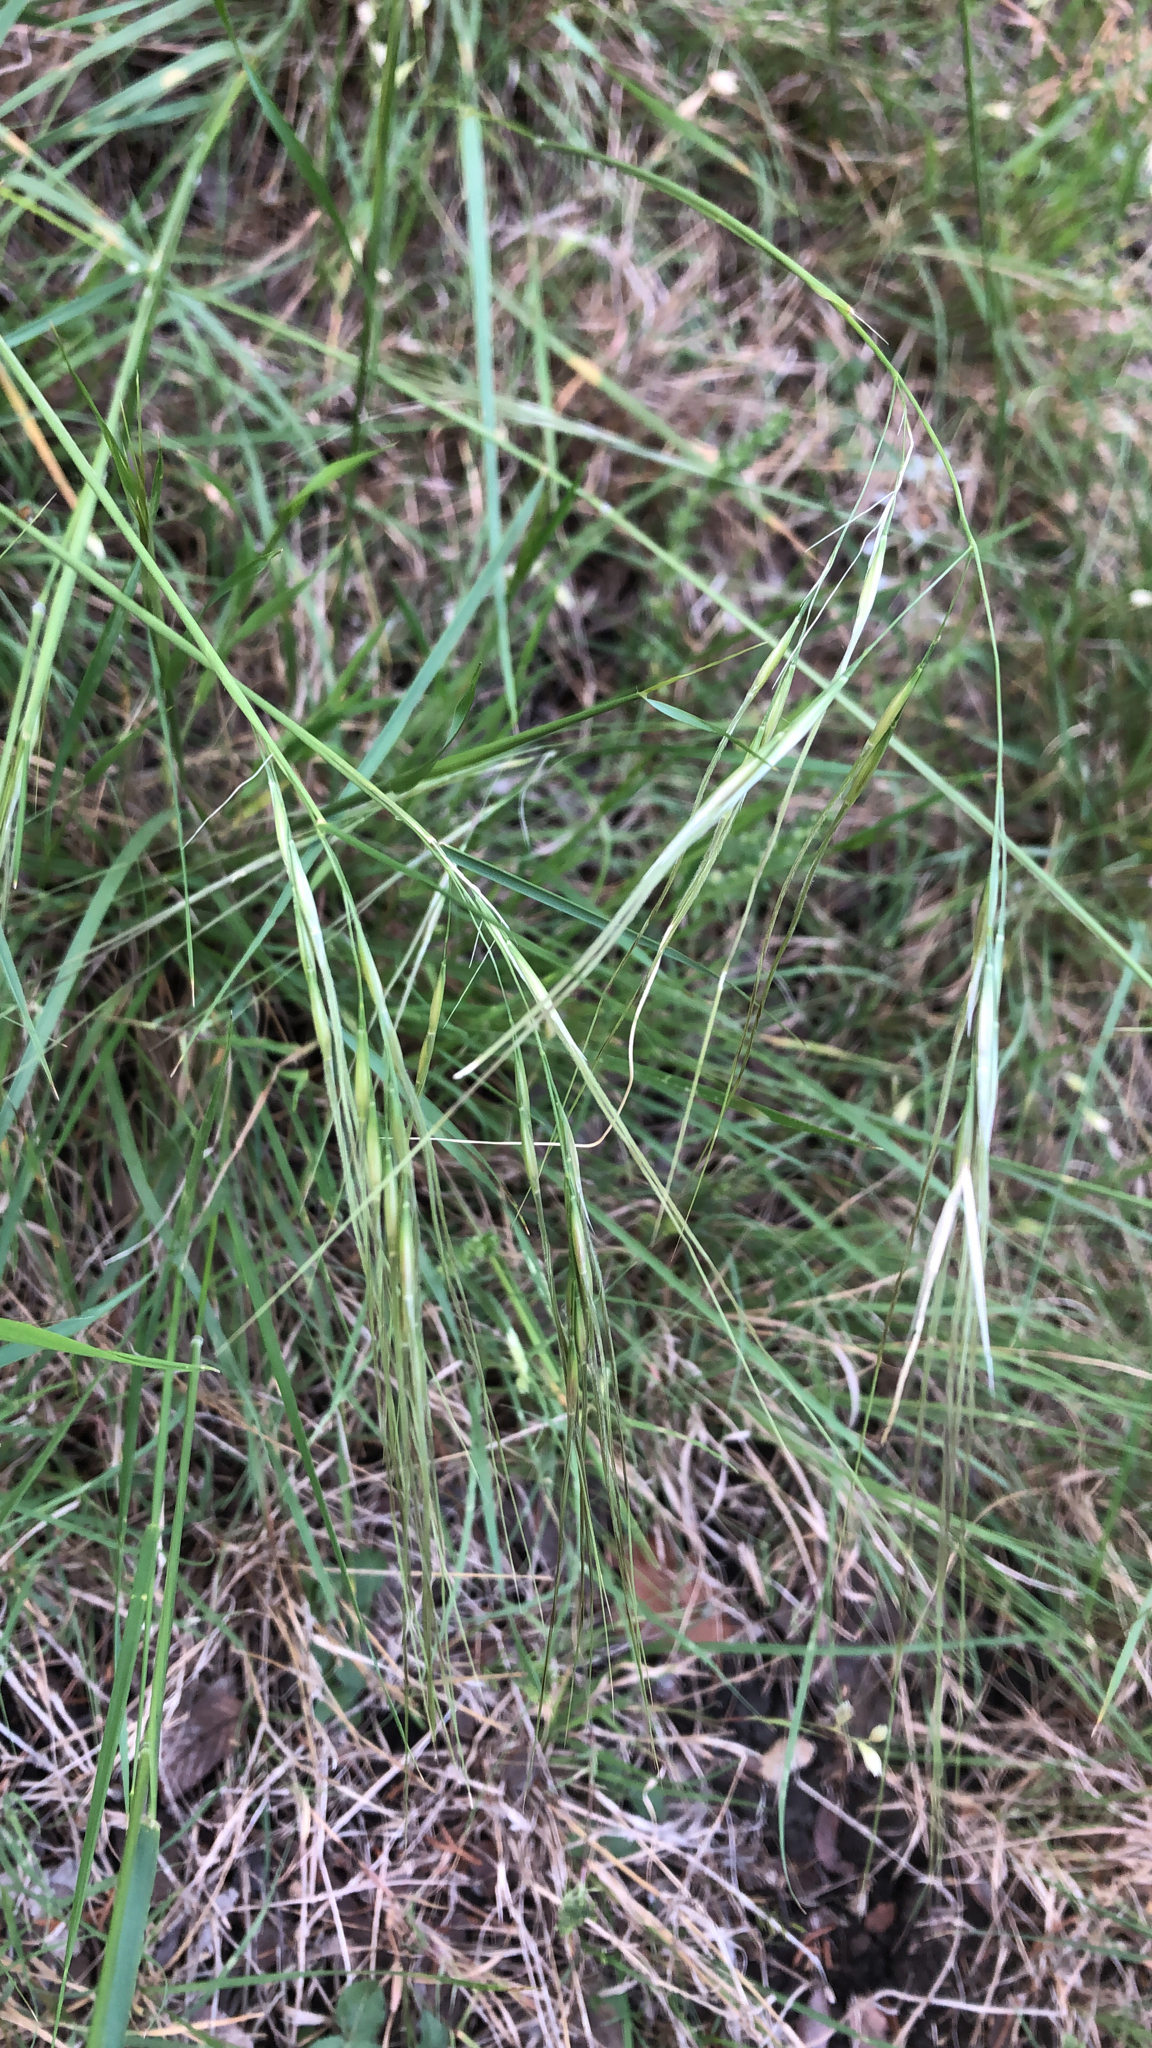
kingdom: Plantae
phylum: Tracheophyta
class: Liliopsida
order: Poales
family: Poaceae
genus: Nassella
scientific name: Nassella leucotricha
